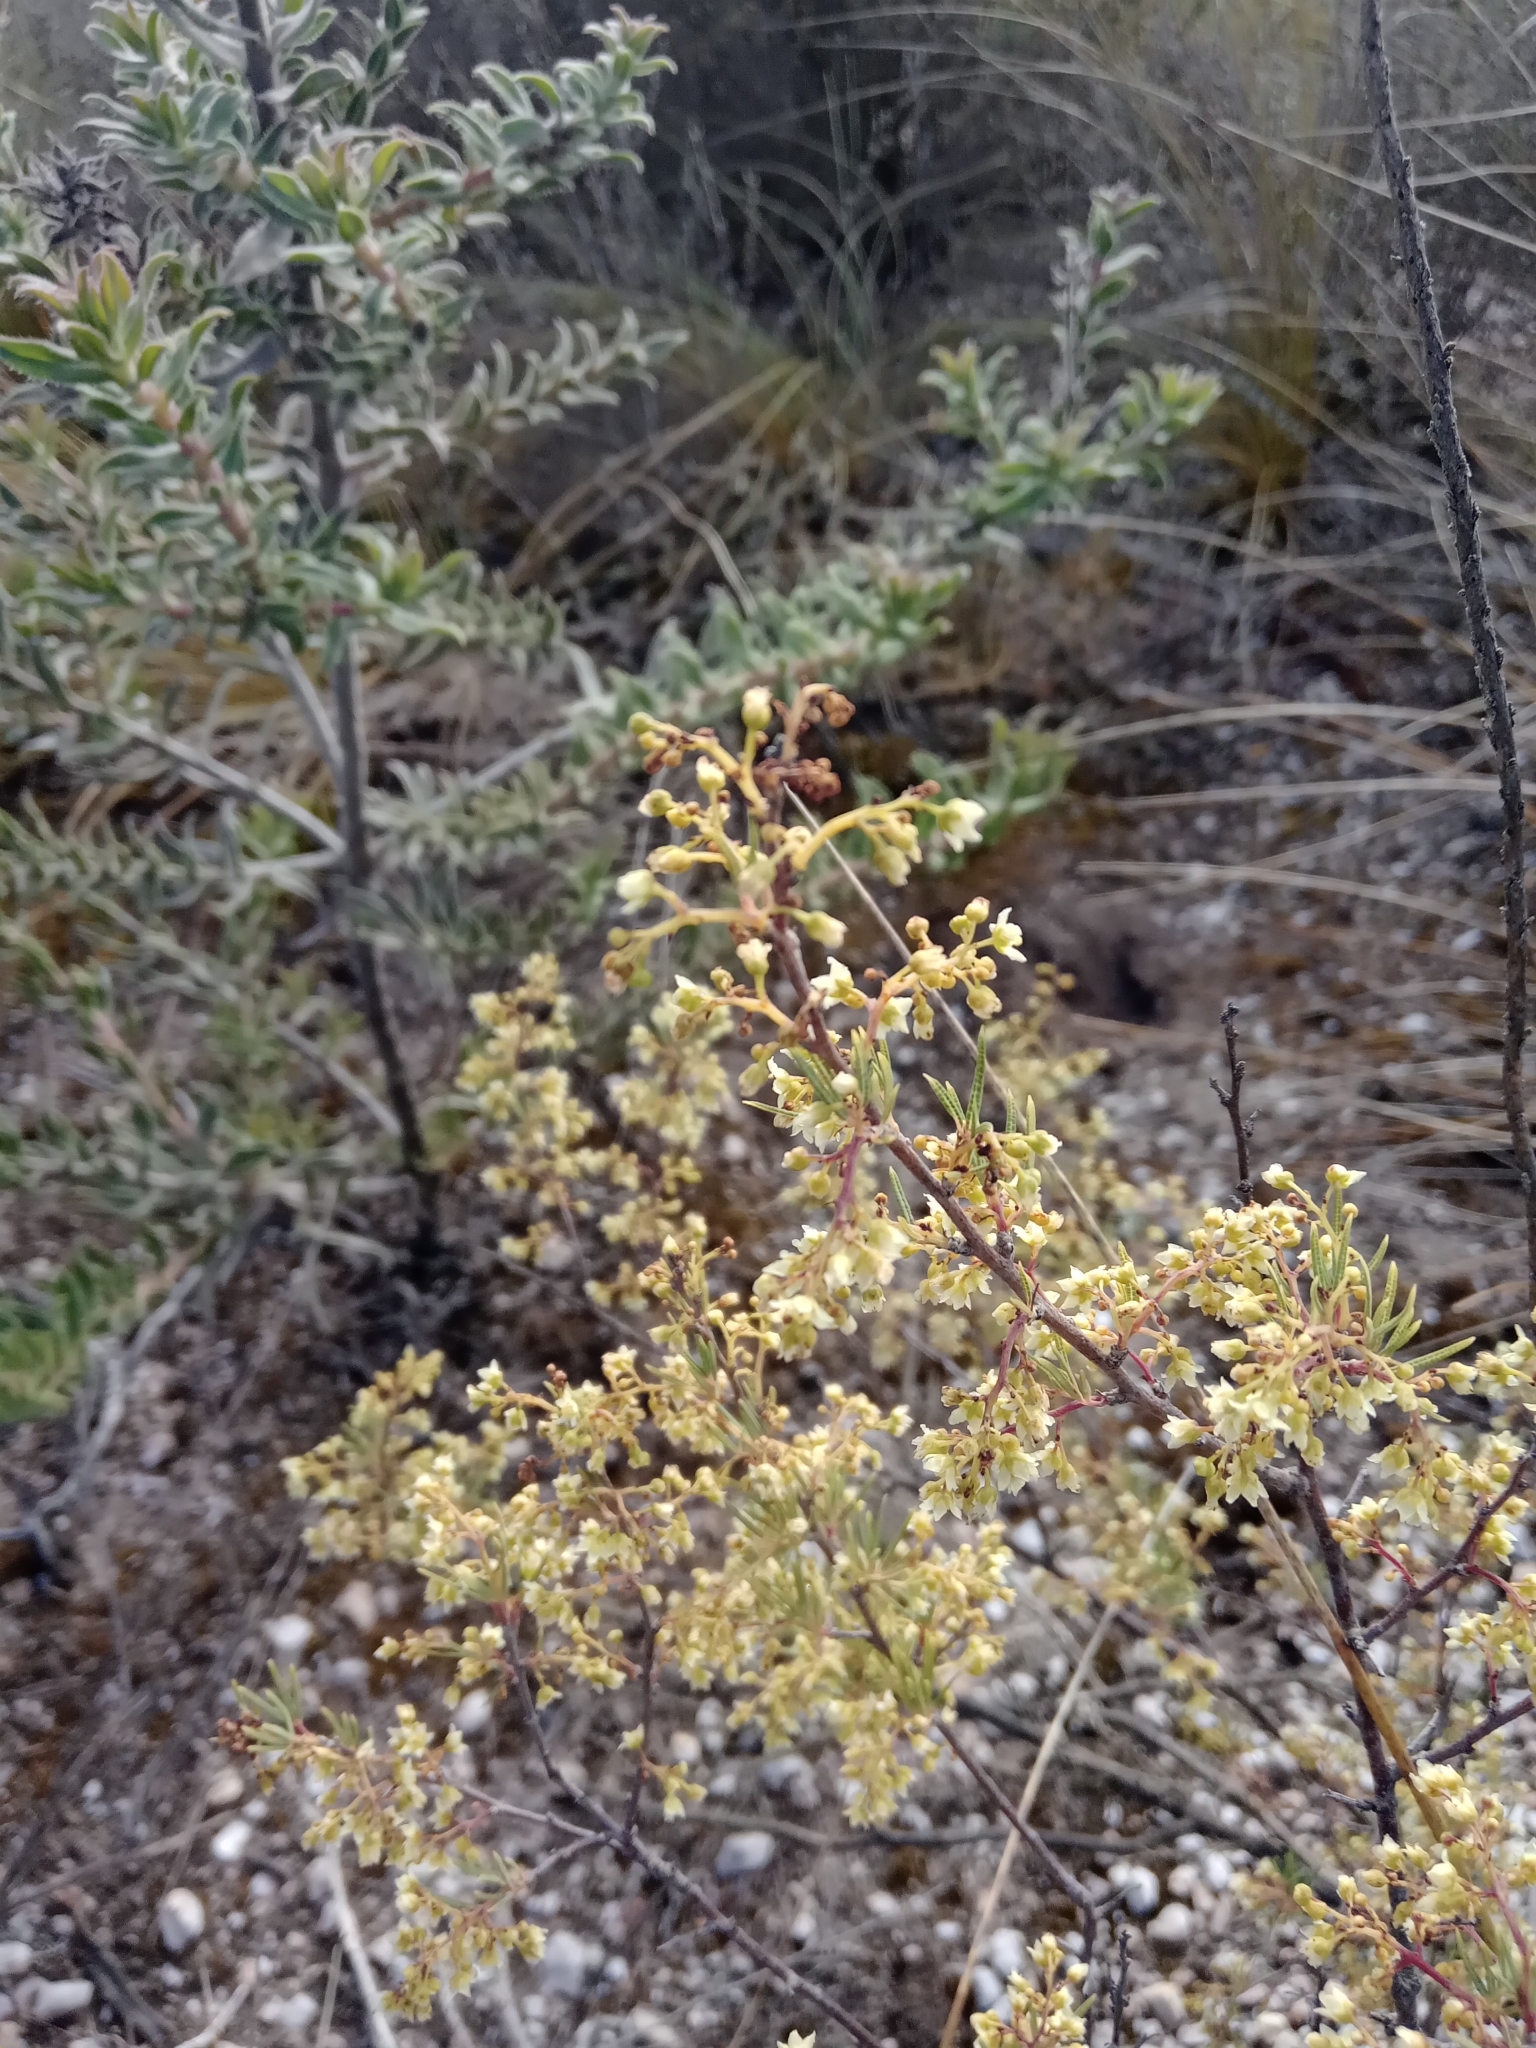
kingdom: Plantae
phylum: Tracheophyta
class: Magnoliopsida
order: Sapindales
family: Anacardiaceae
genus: Searsia
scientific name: Searsia rosmarinifolia
